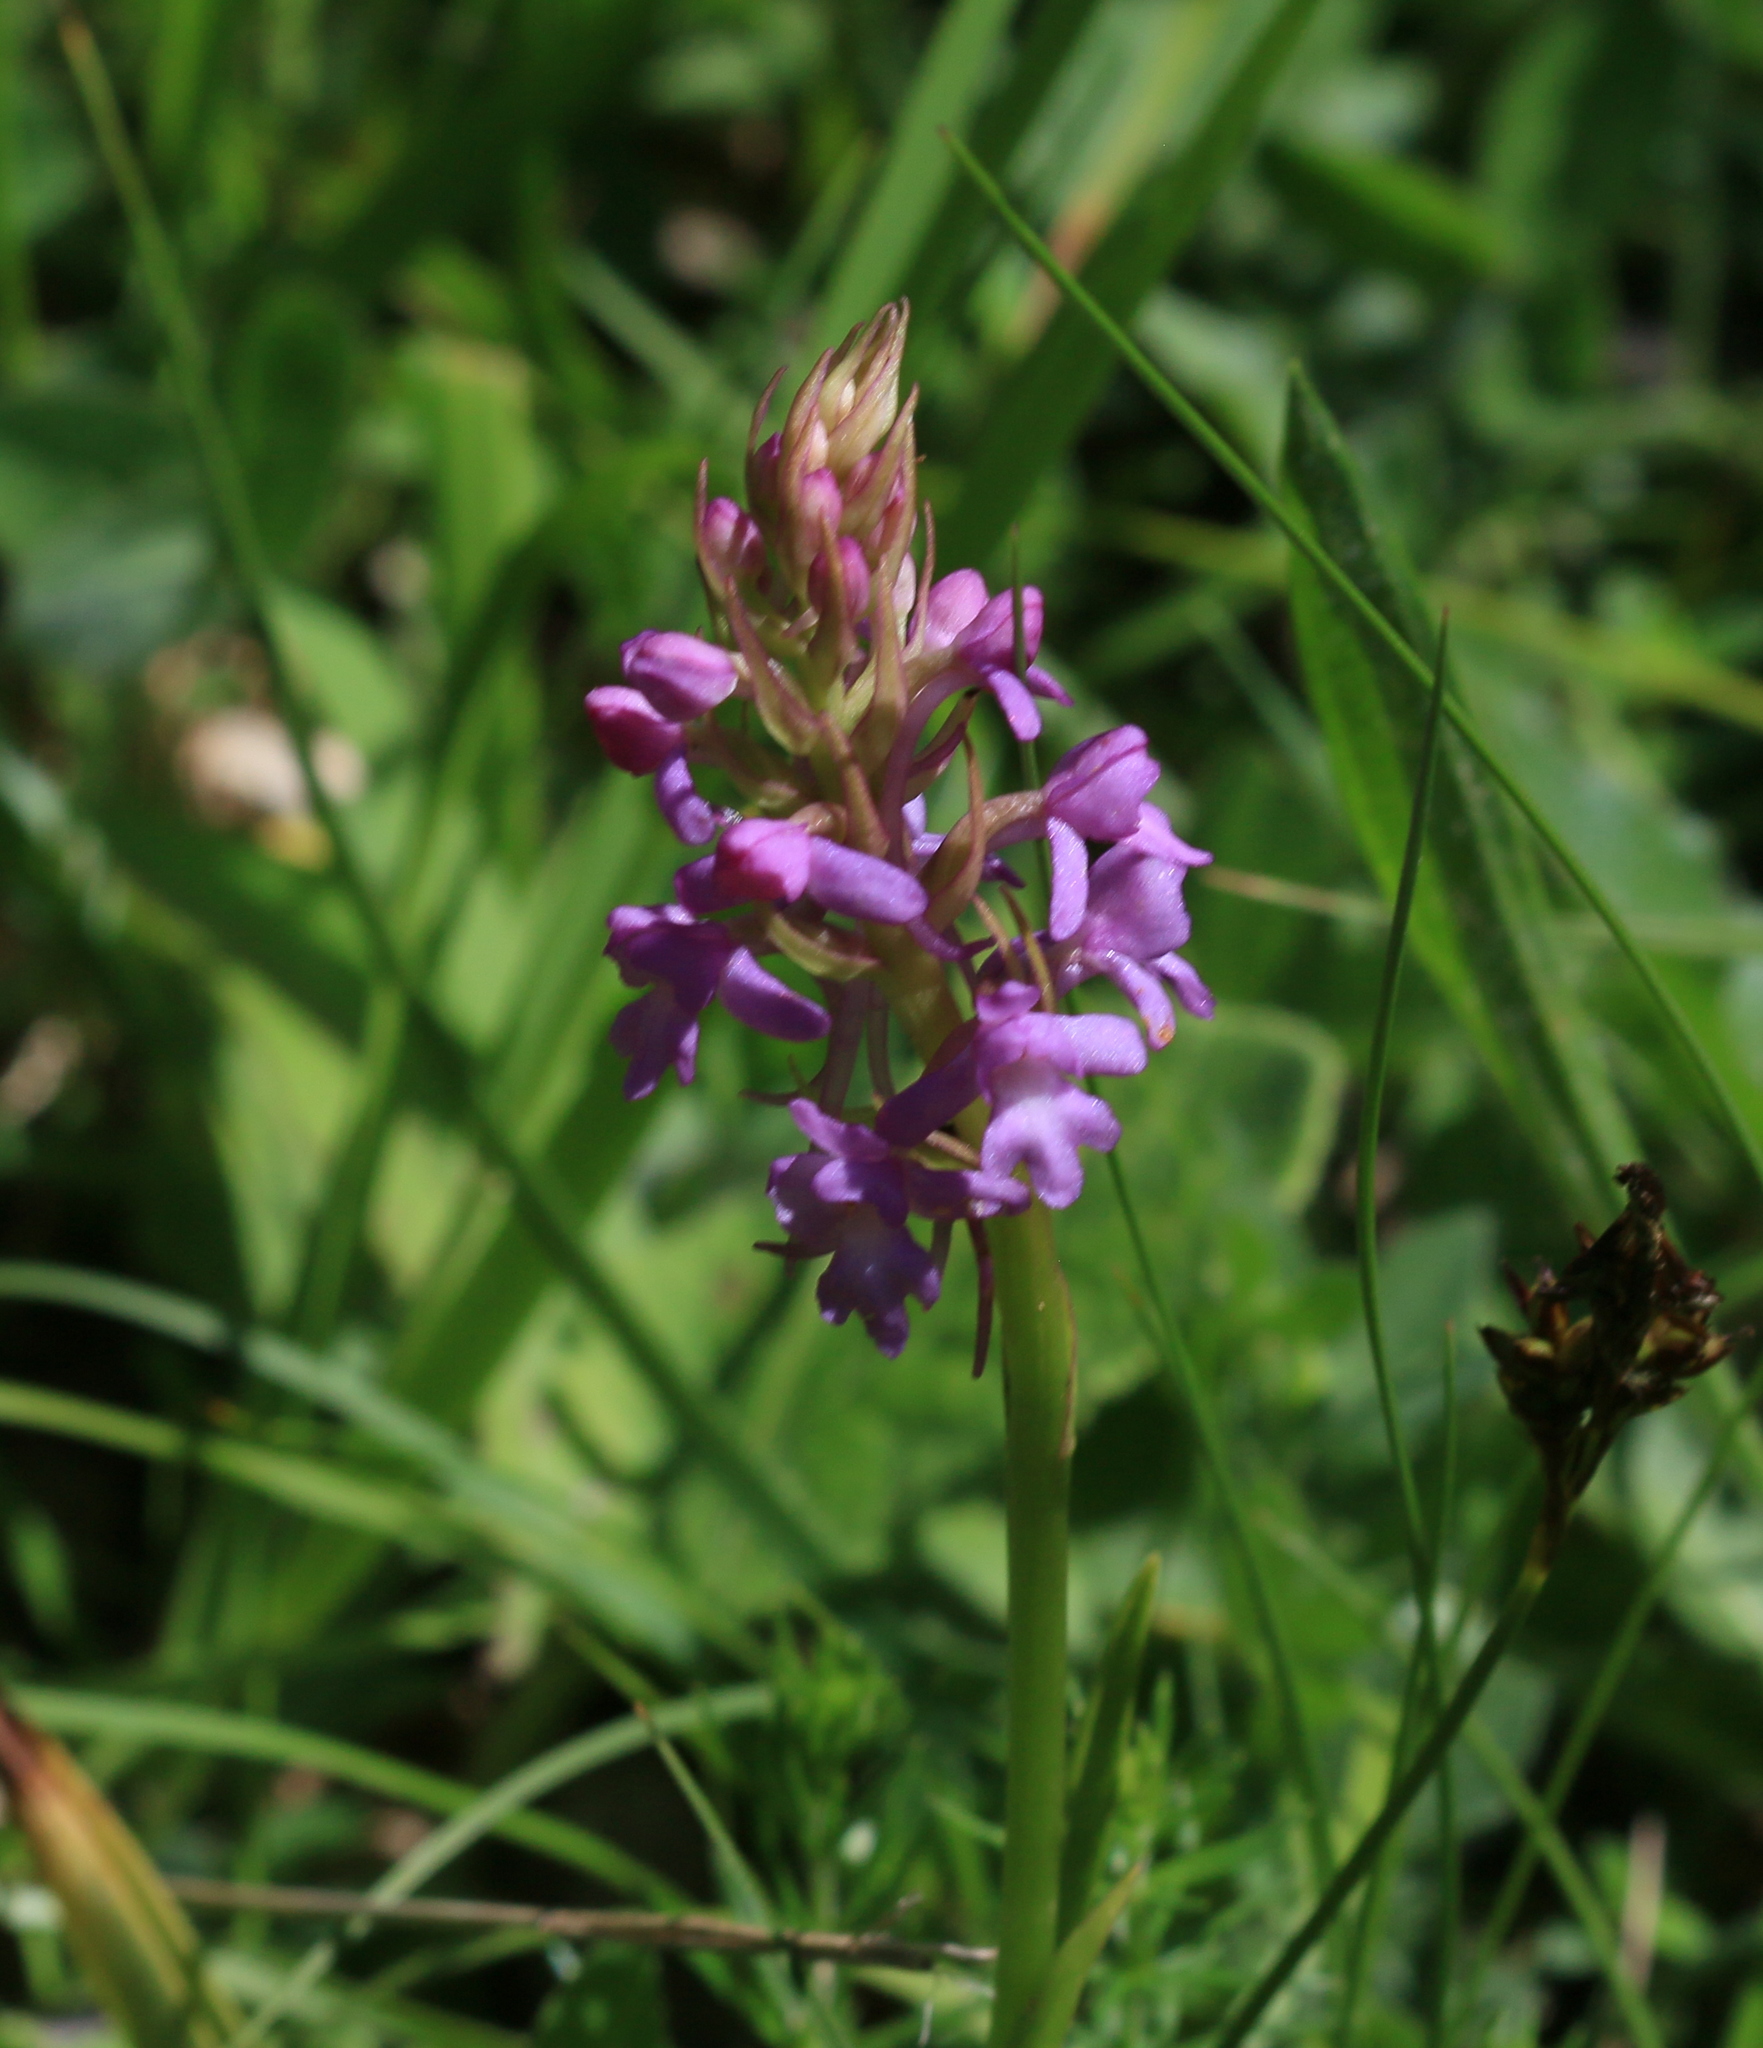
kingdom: Plantae
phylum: Tracheophyta
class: Liliopsida
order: Asparagales
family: Orchidaceae
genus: Gymnadenia
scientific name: Gymnadenia conopsea
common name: Fragrant orchid
